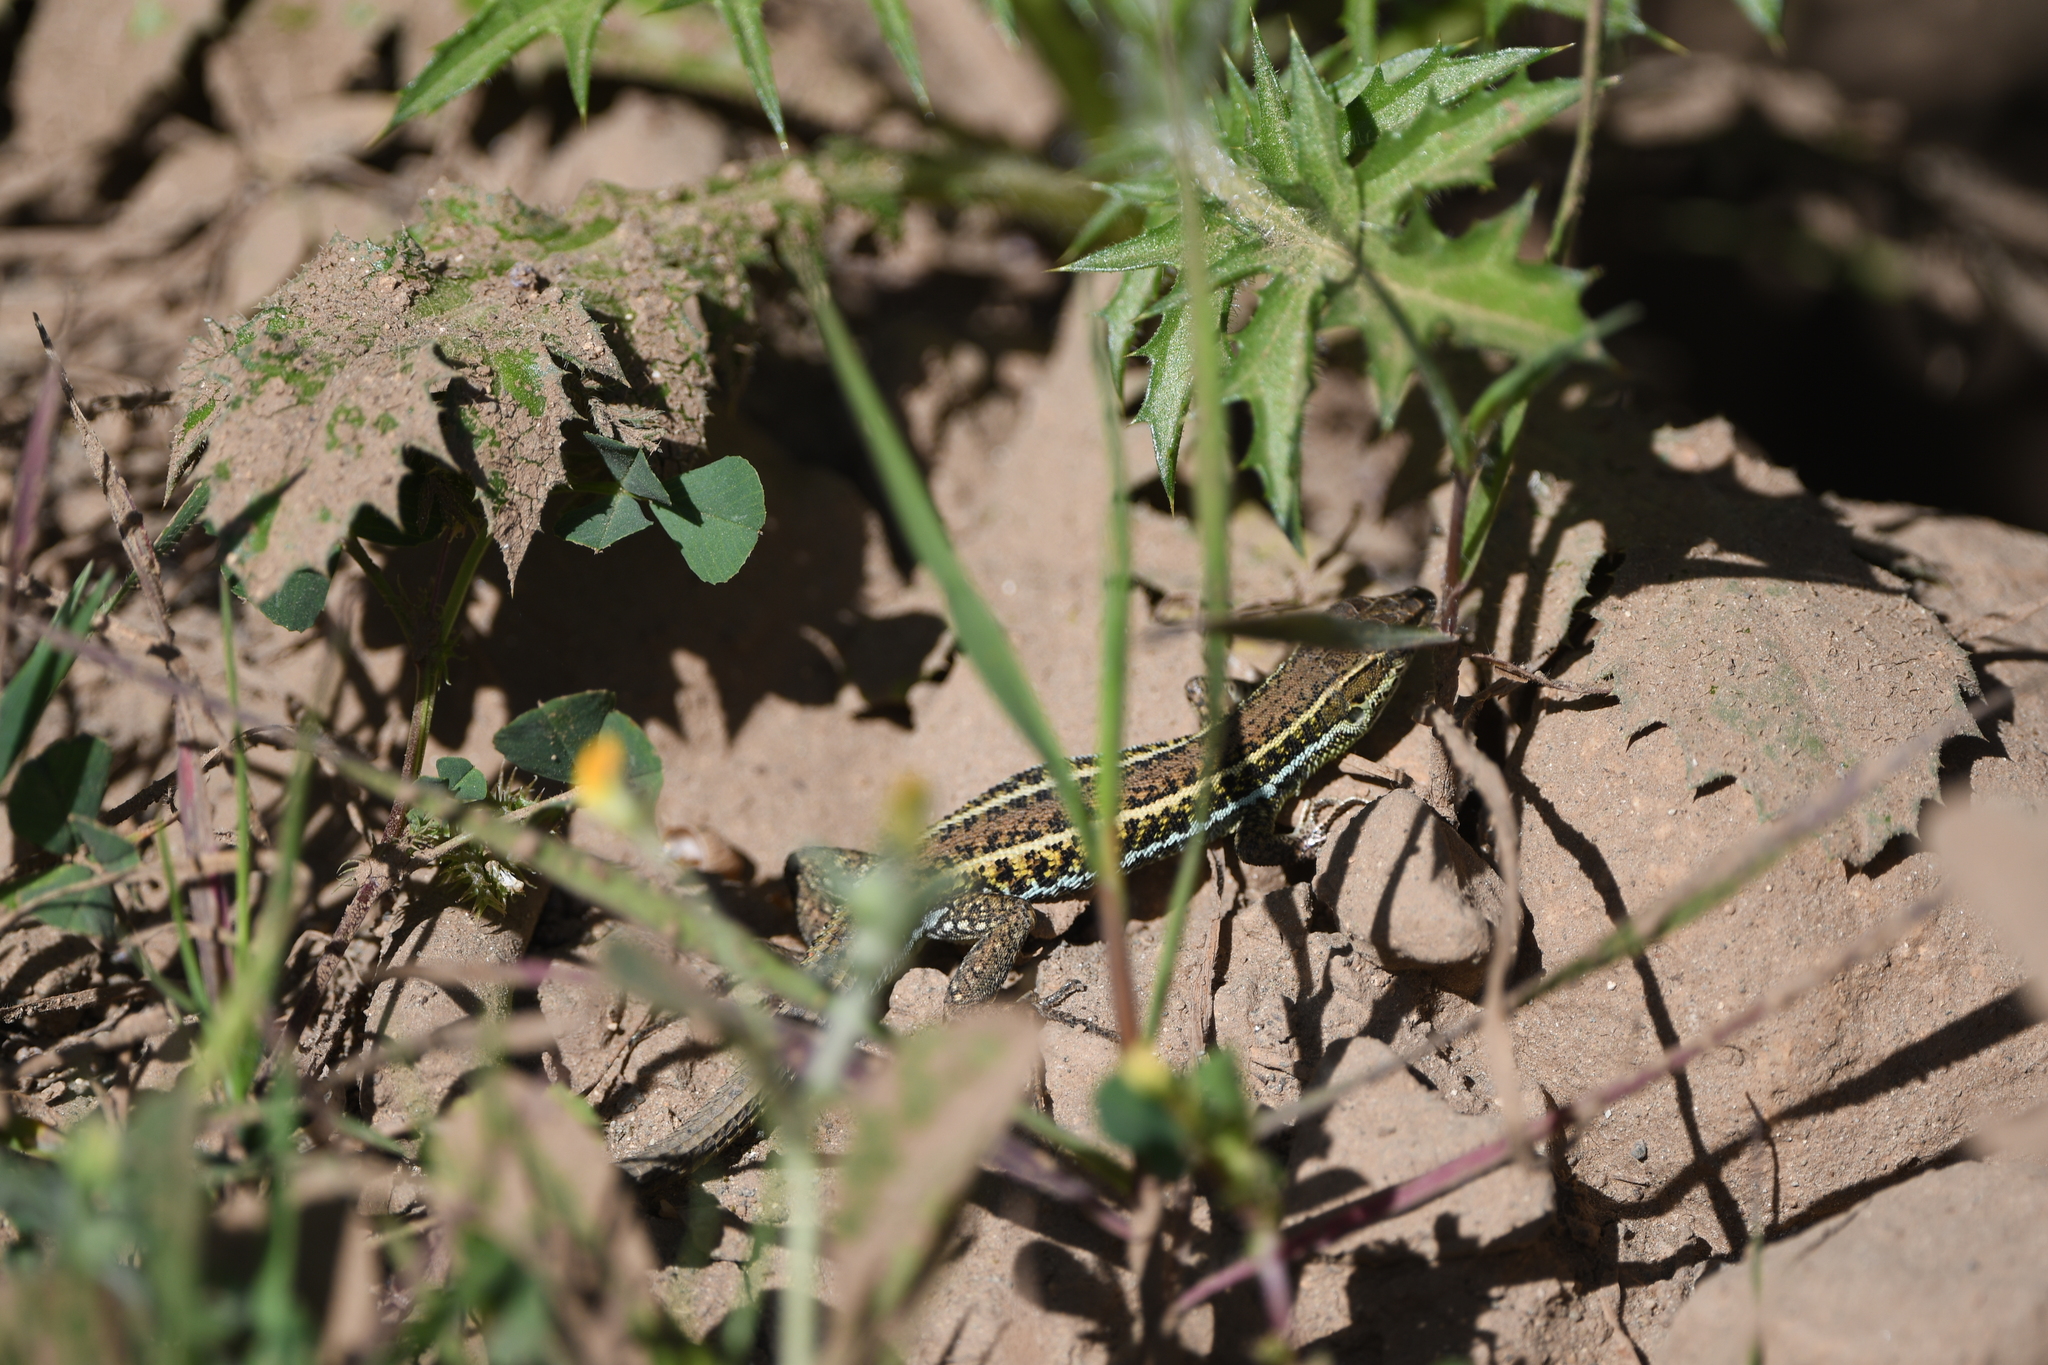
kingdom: Animalia
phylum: Chordata
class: Squamata
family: Lacertidae
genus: Ophisops
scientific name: Ophisops elegans
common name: Snake-eyed lizard
